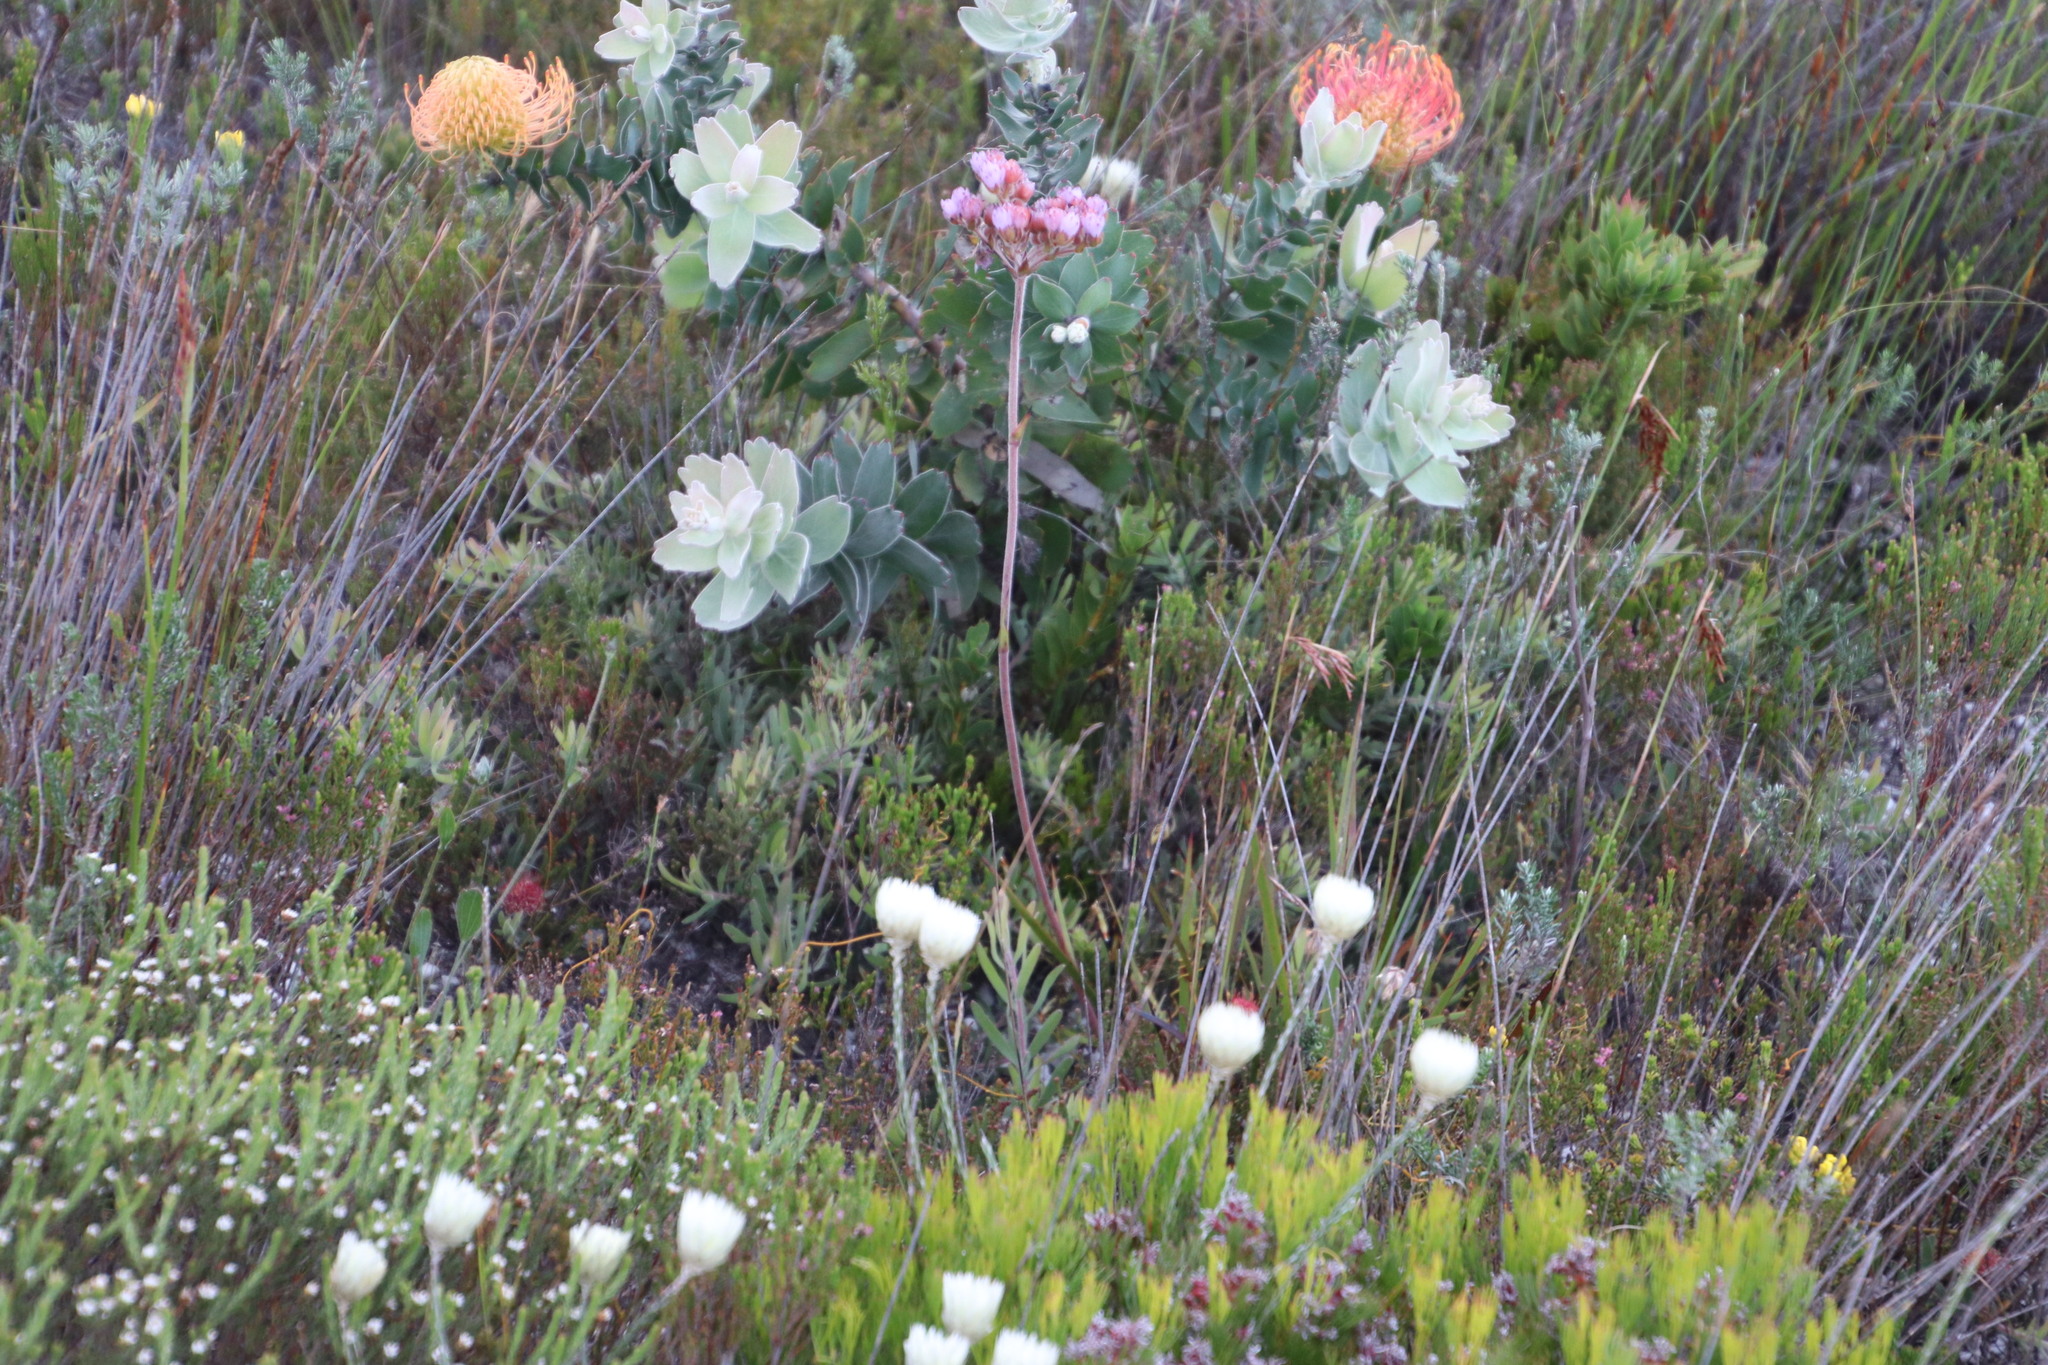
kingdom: Plantae
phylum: Tracheophyta
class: Liliopsida
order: Commelinales
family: Haemodoraceae
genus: Dilatris
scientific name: Dilatris pillansii
